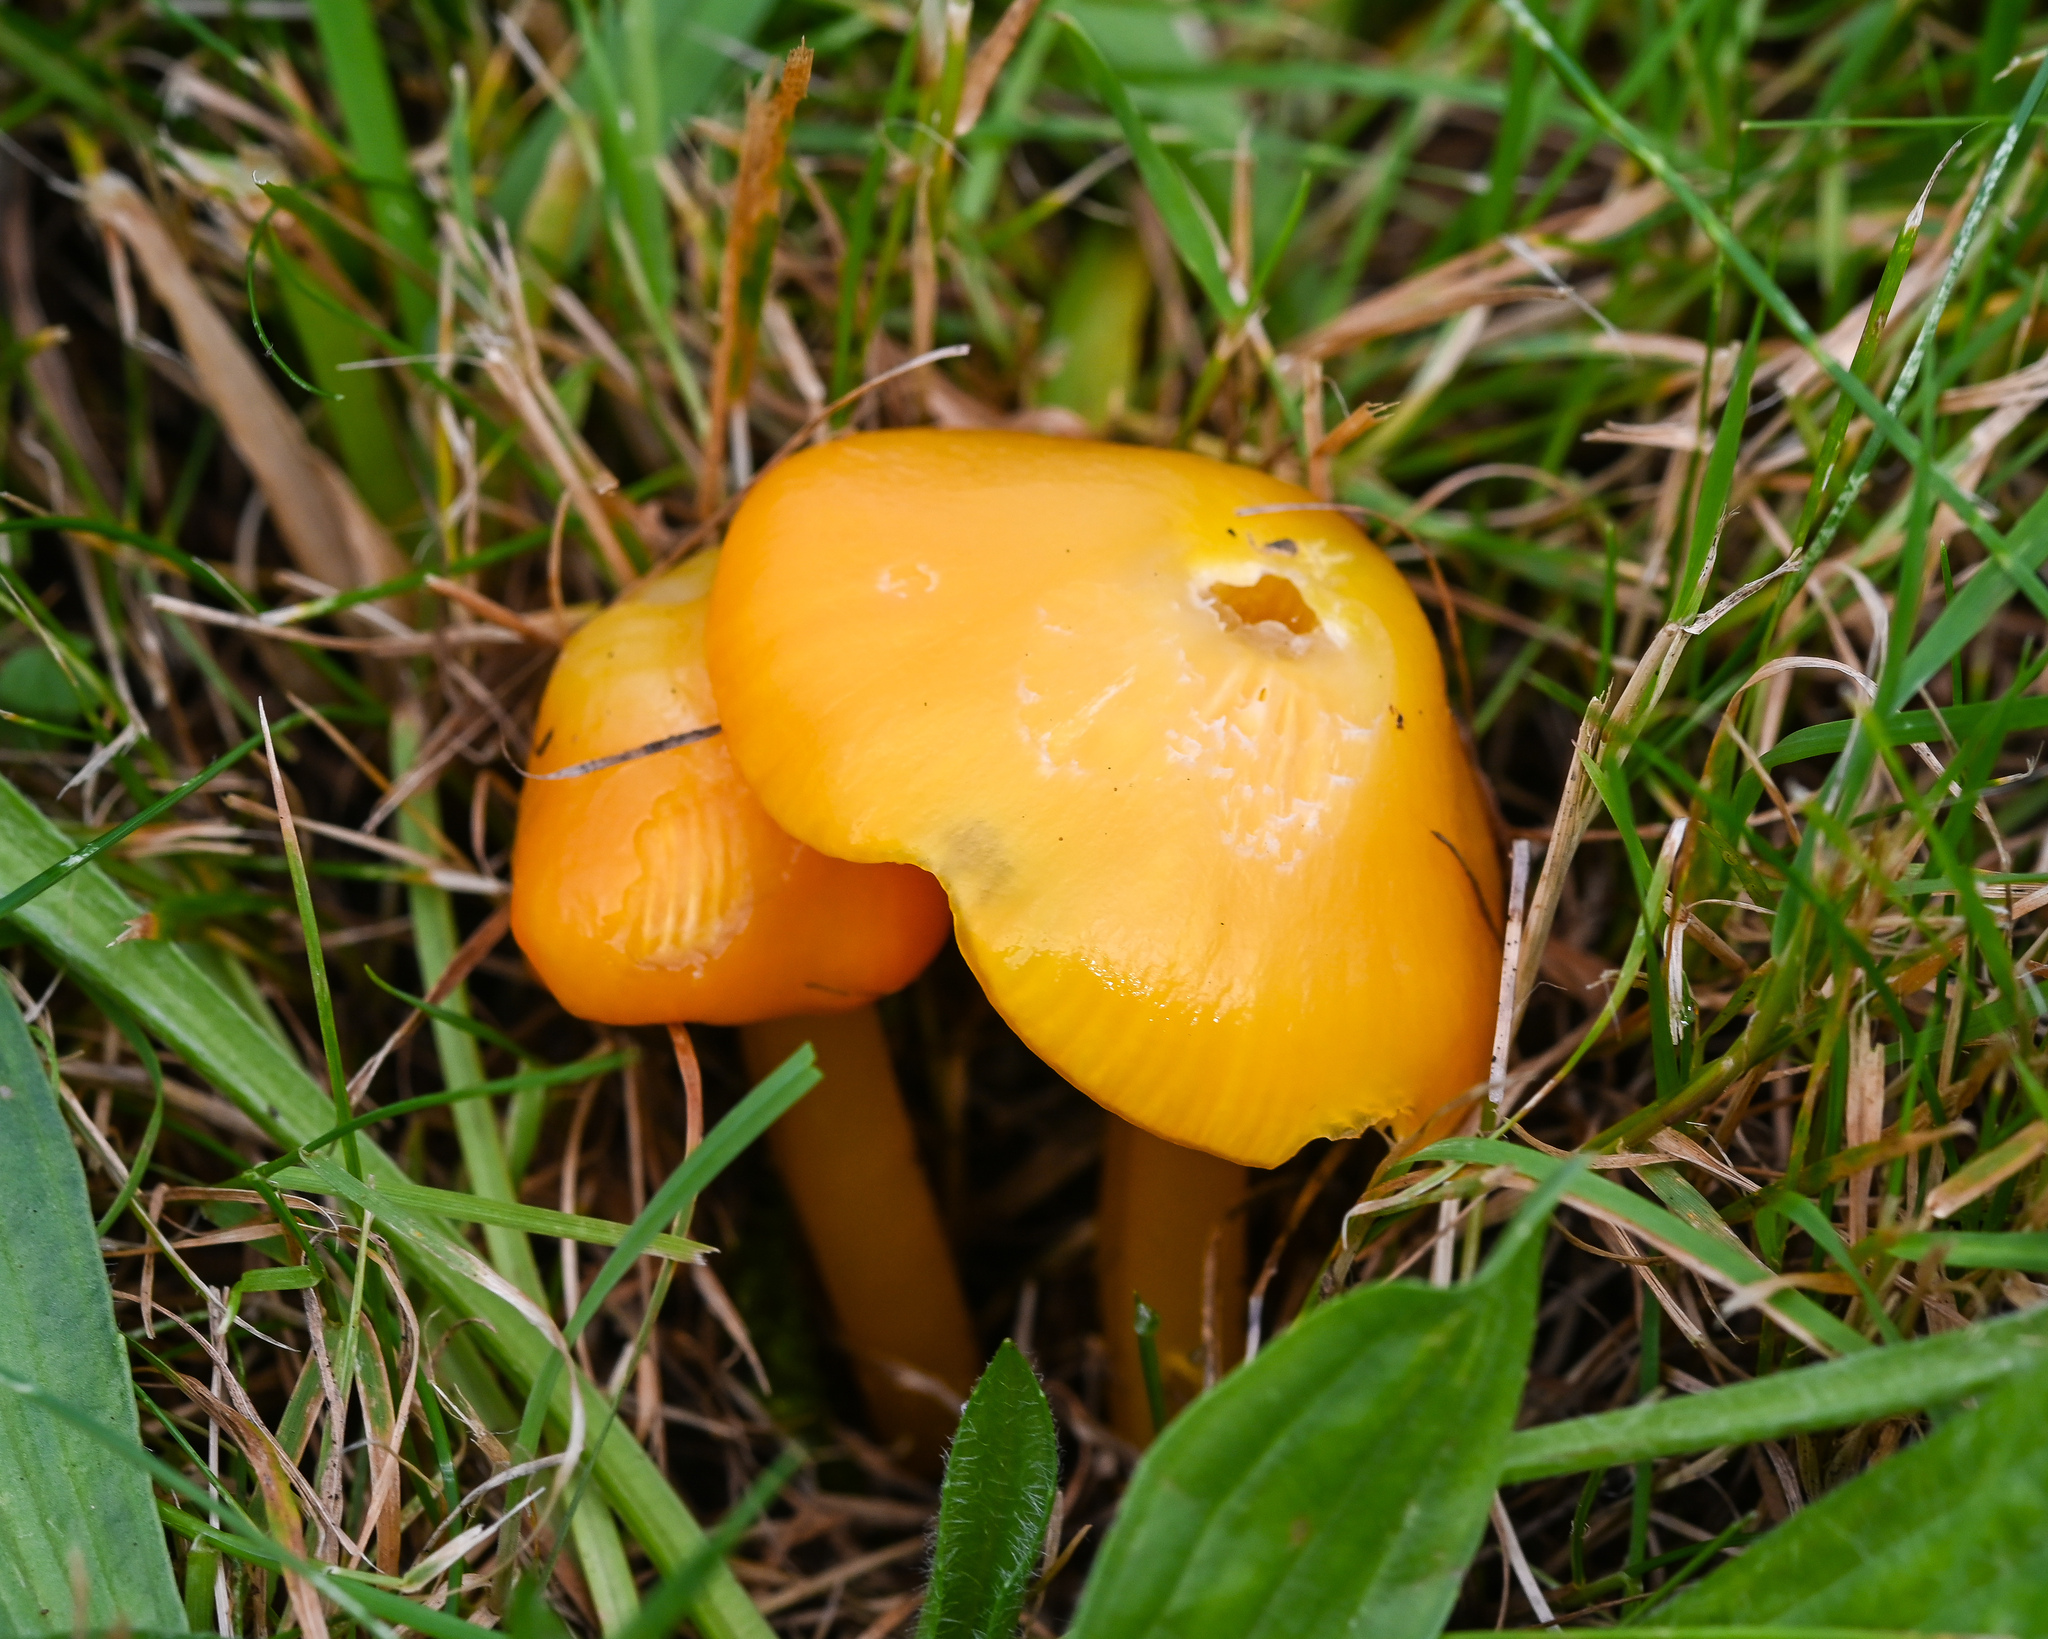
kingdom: Fungi
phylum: Basidiomycota
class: Agaricomycetes
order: Agaricales
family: Hygrophoraceae
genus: Hygrocybe
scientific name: Hygrocybe chlorophana
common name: Golden waxcap
